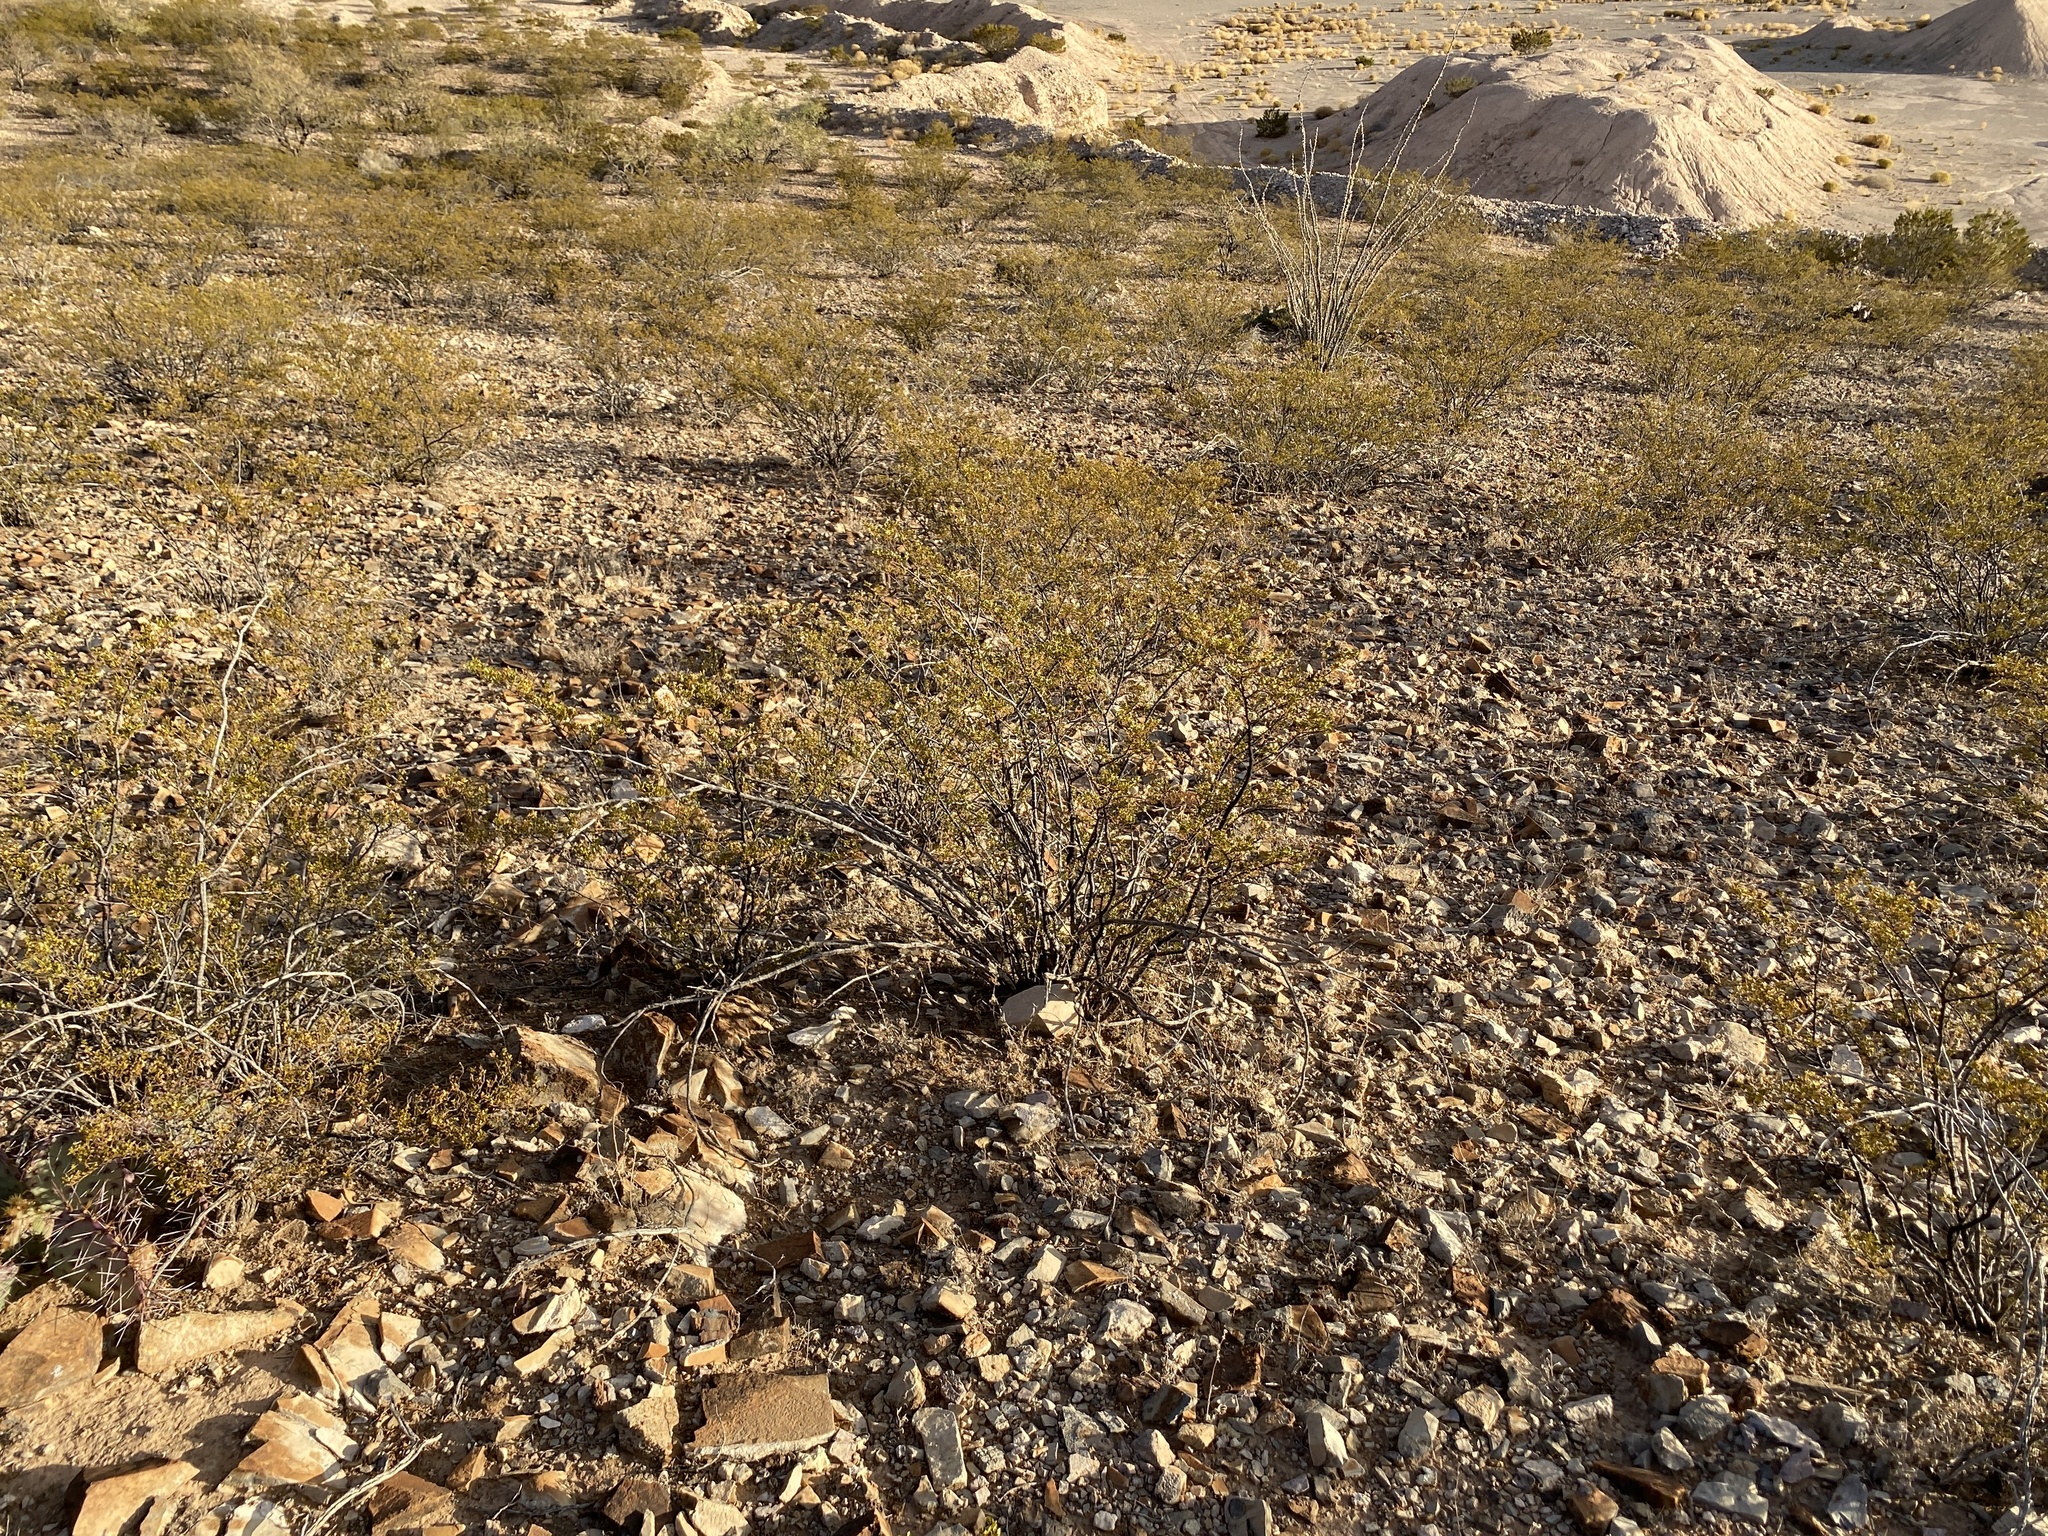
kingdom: Plantae
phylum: Tracheophyta
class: Magnoliopsida
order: Zygophyllales
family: Zygophyllaceae
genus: Larrea
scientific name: Larrea tridentata
